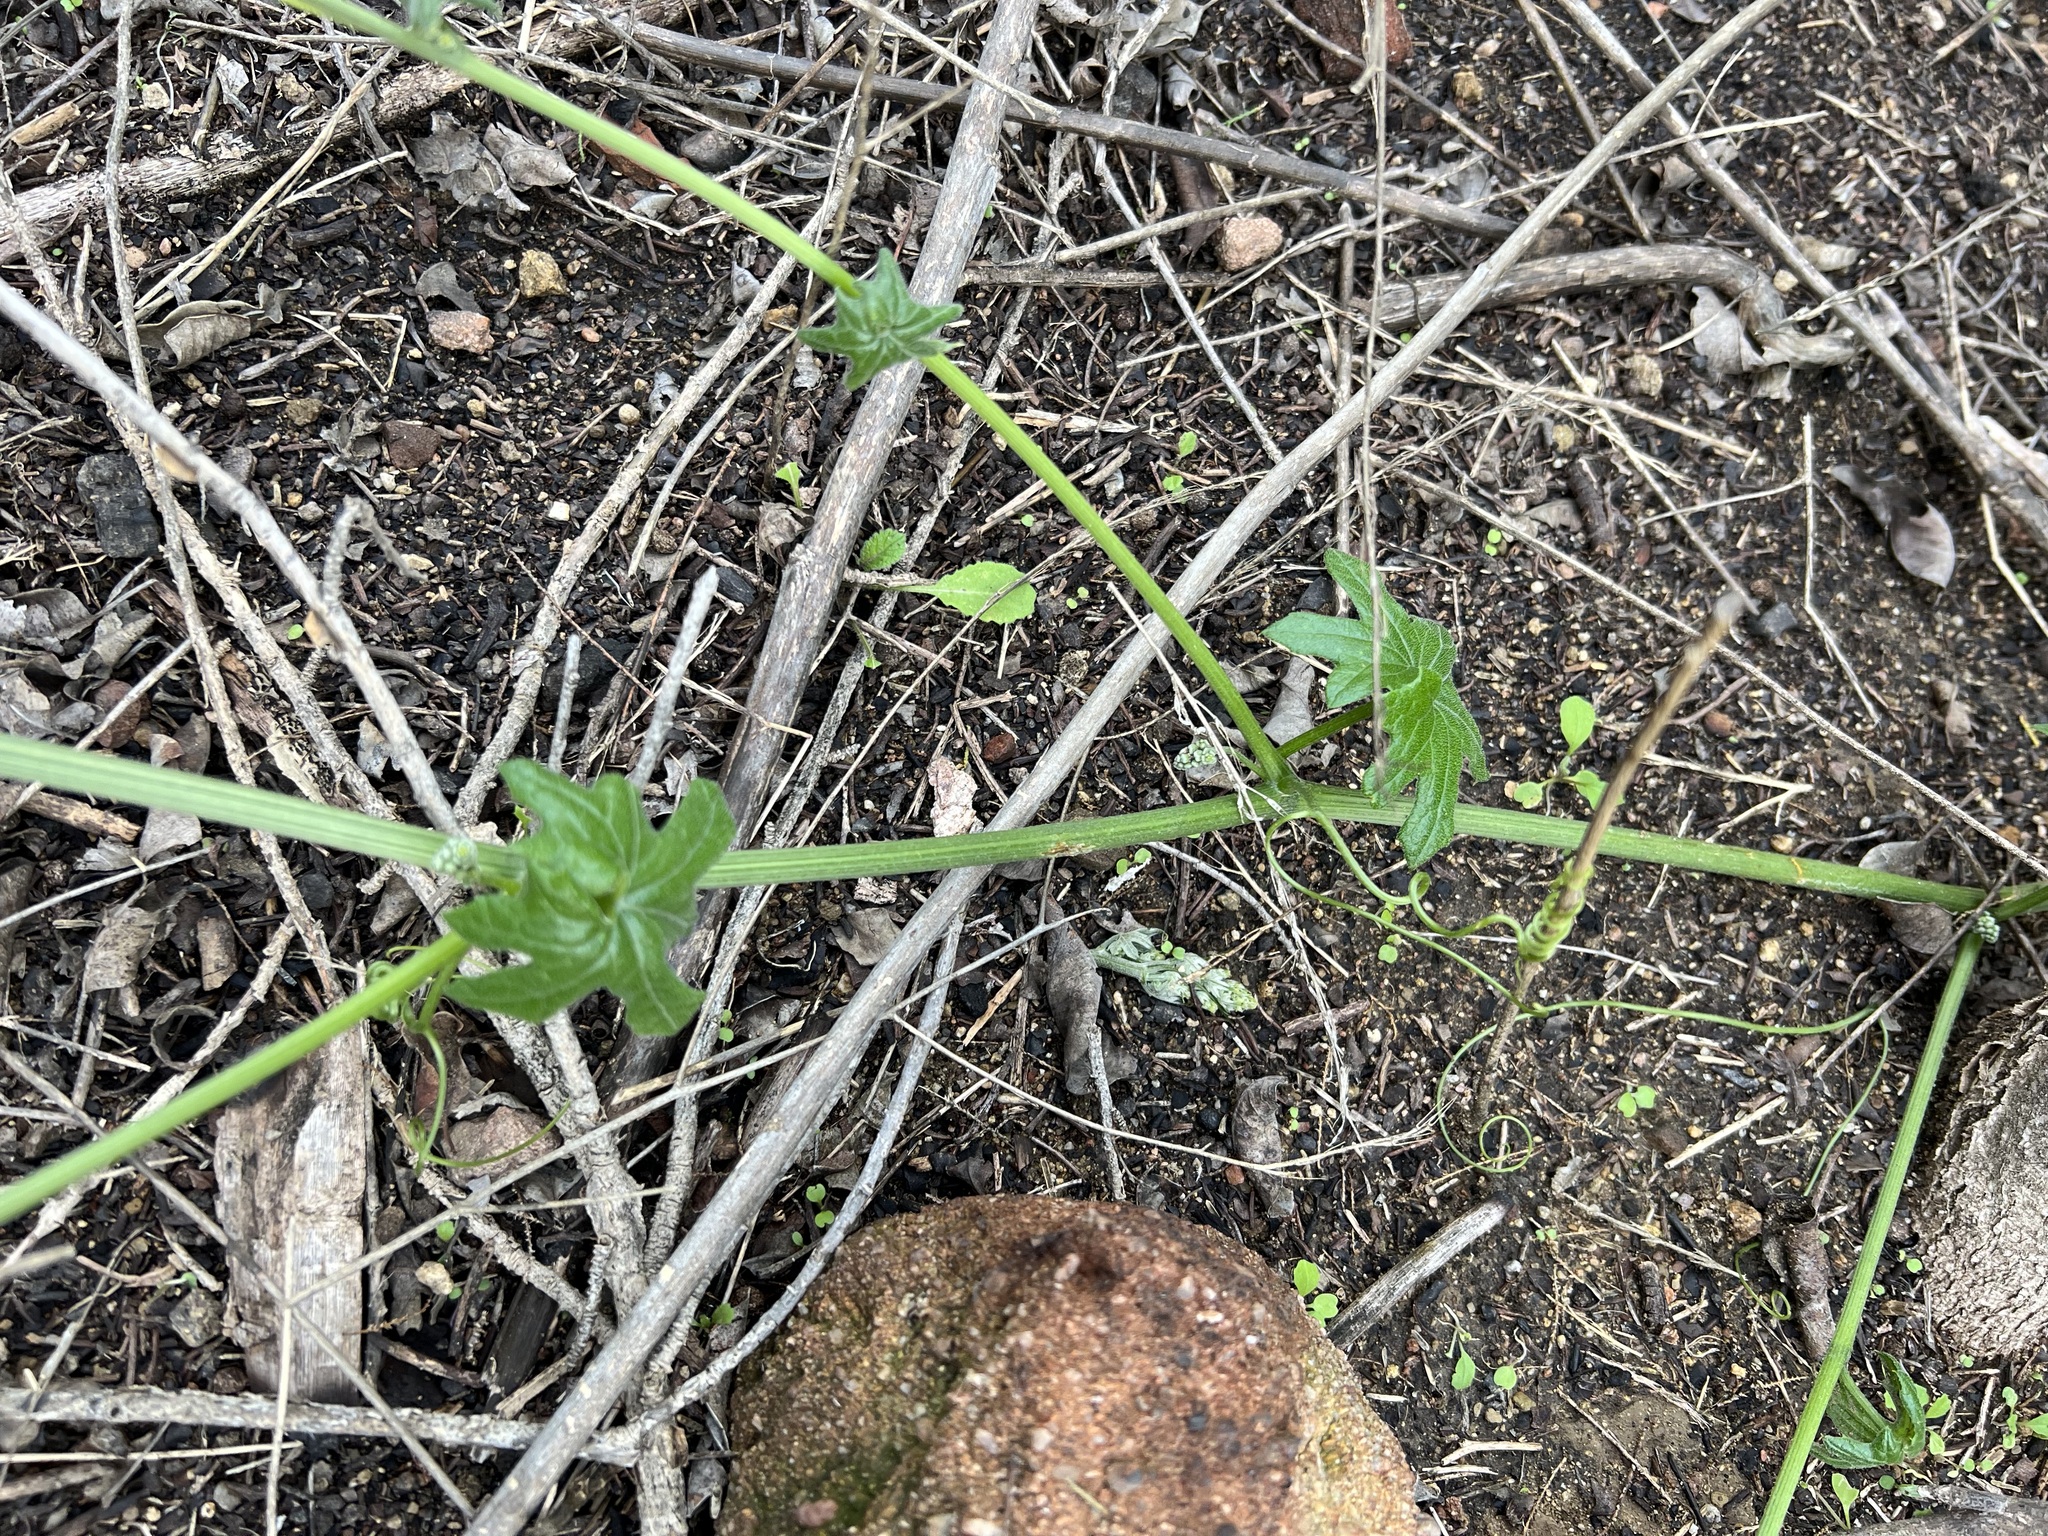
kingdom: Plantae
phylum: Tracheophyta
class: Magnoliopsida
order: Cucurbitales
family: Cucurbitaceae
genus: Marah
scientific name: Marah macrocarpa
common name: Cucamonga manroot
